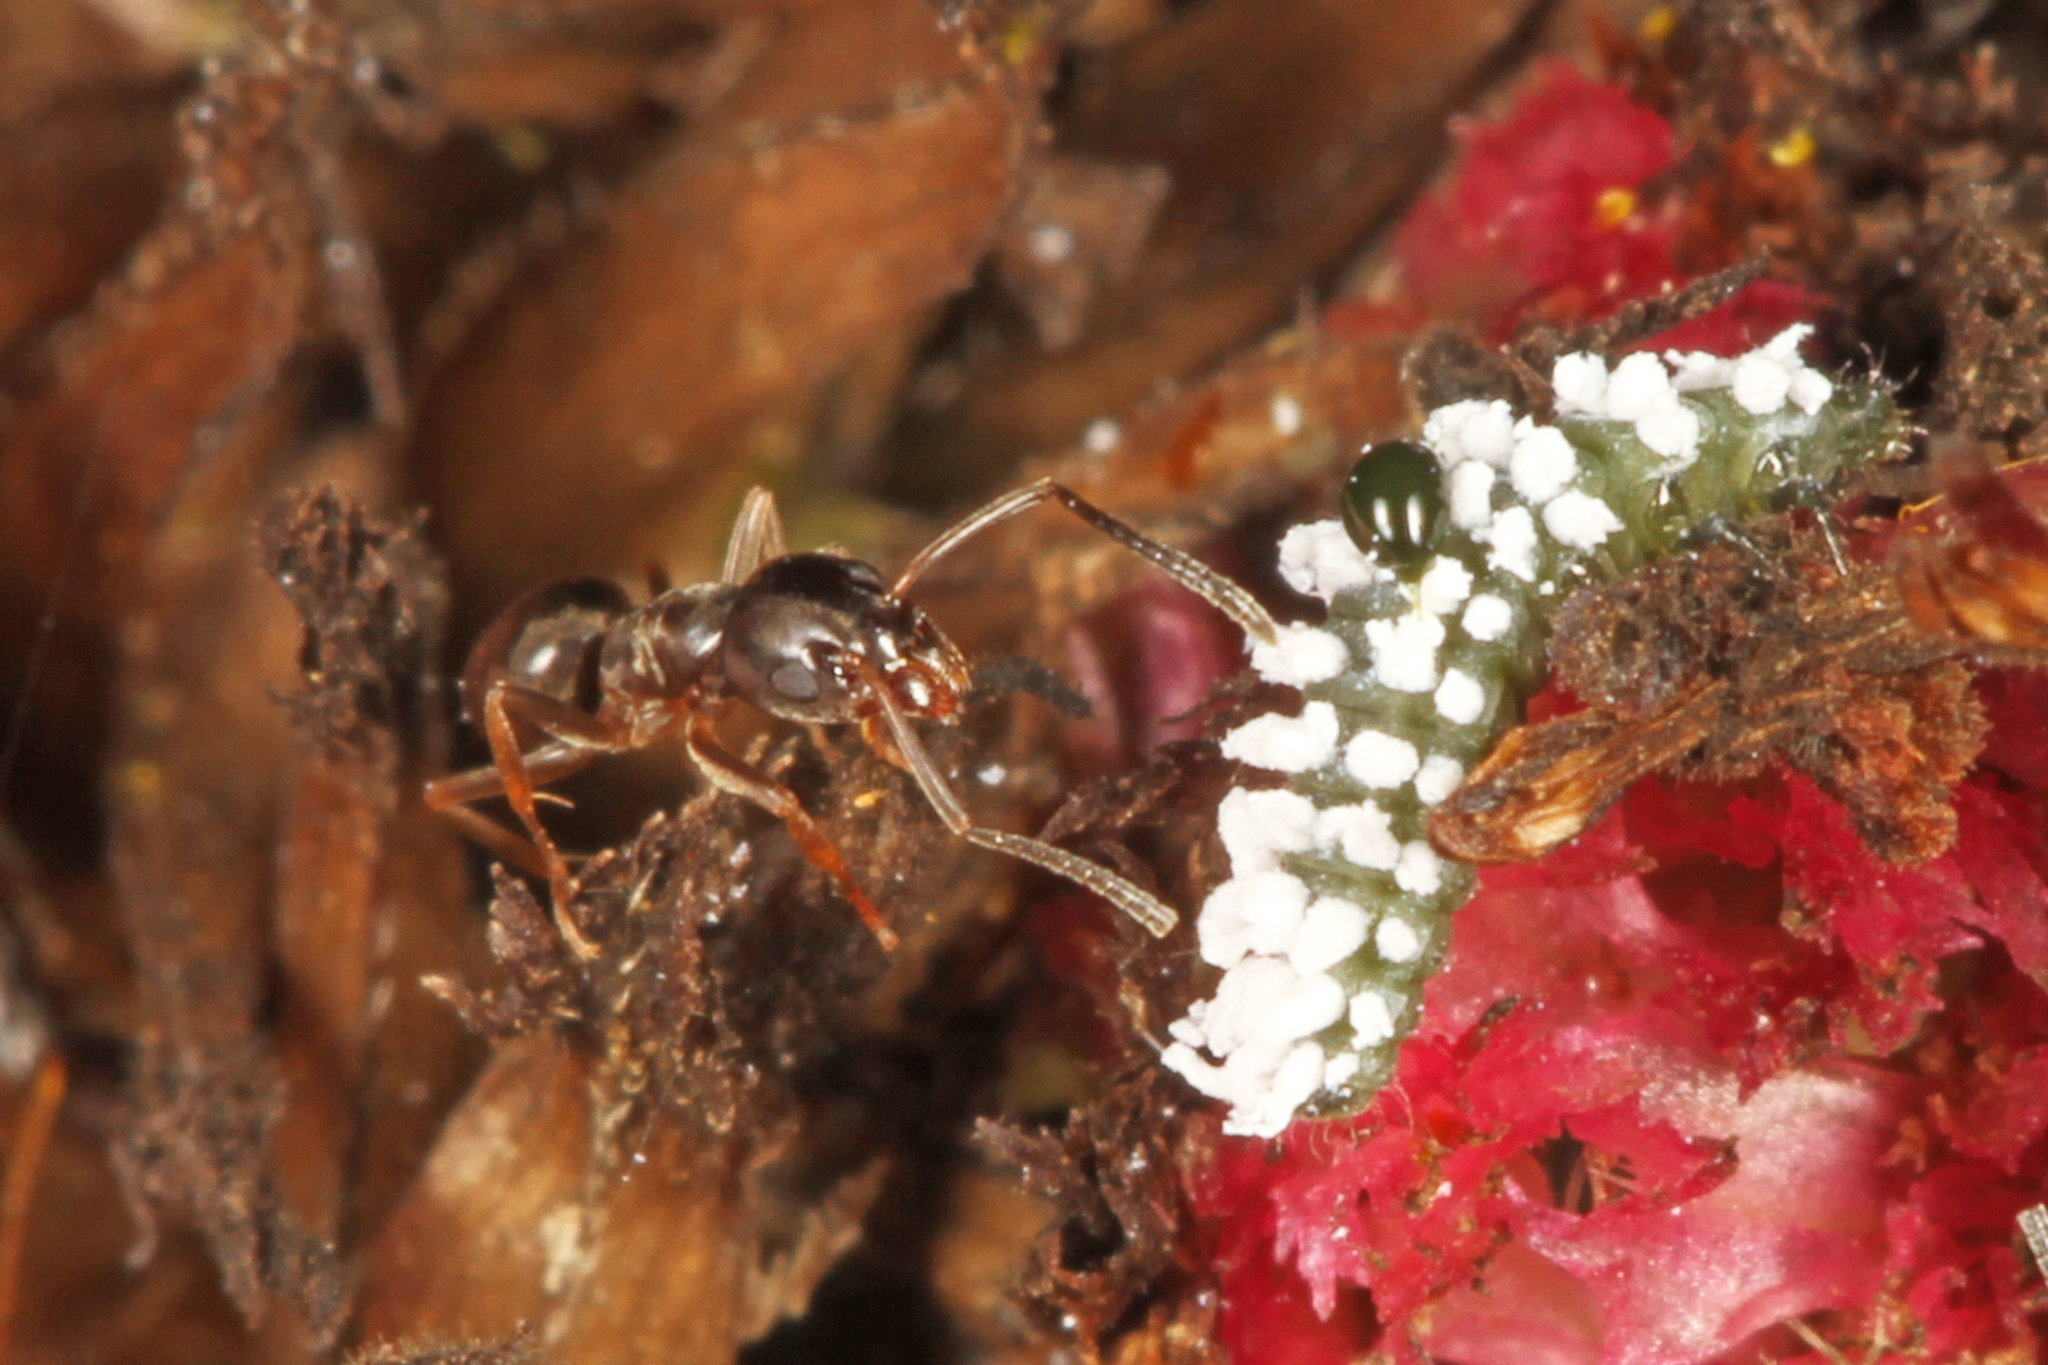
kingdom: Animalia
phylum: Arthropoda
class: Insecta
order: Hymenoptera
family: Formicidae
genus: Tapinoma
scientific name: Tapinoma sessile
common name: Odorous house ant
